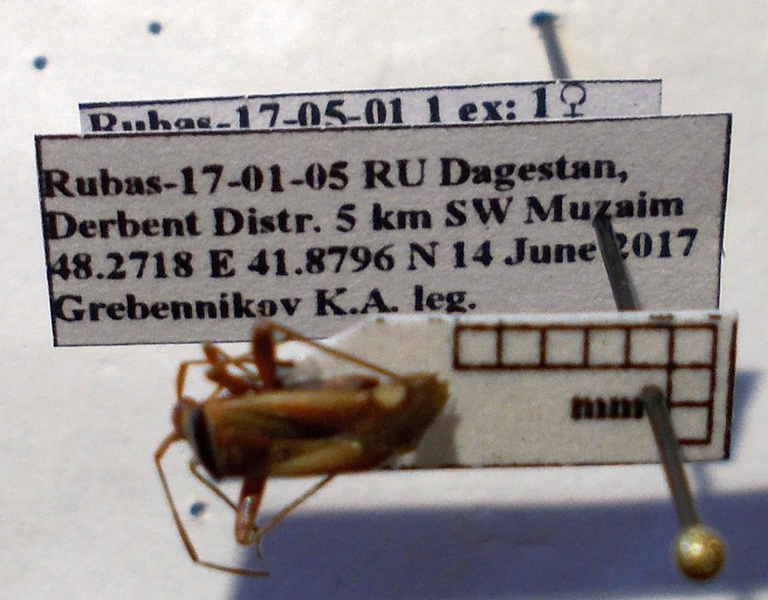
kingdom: Animalia
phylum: Arthropoda
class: Insecta
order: Hemiptera
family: Miridae
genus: Adelphocoris
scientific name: Adelphocoris vandalicus
